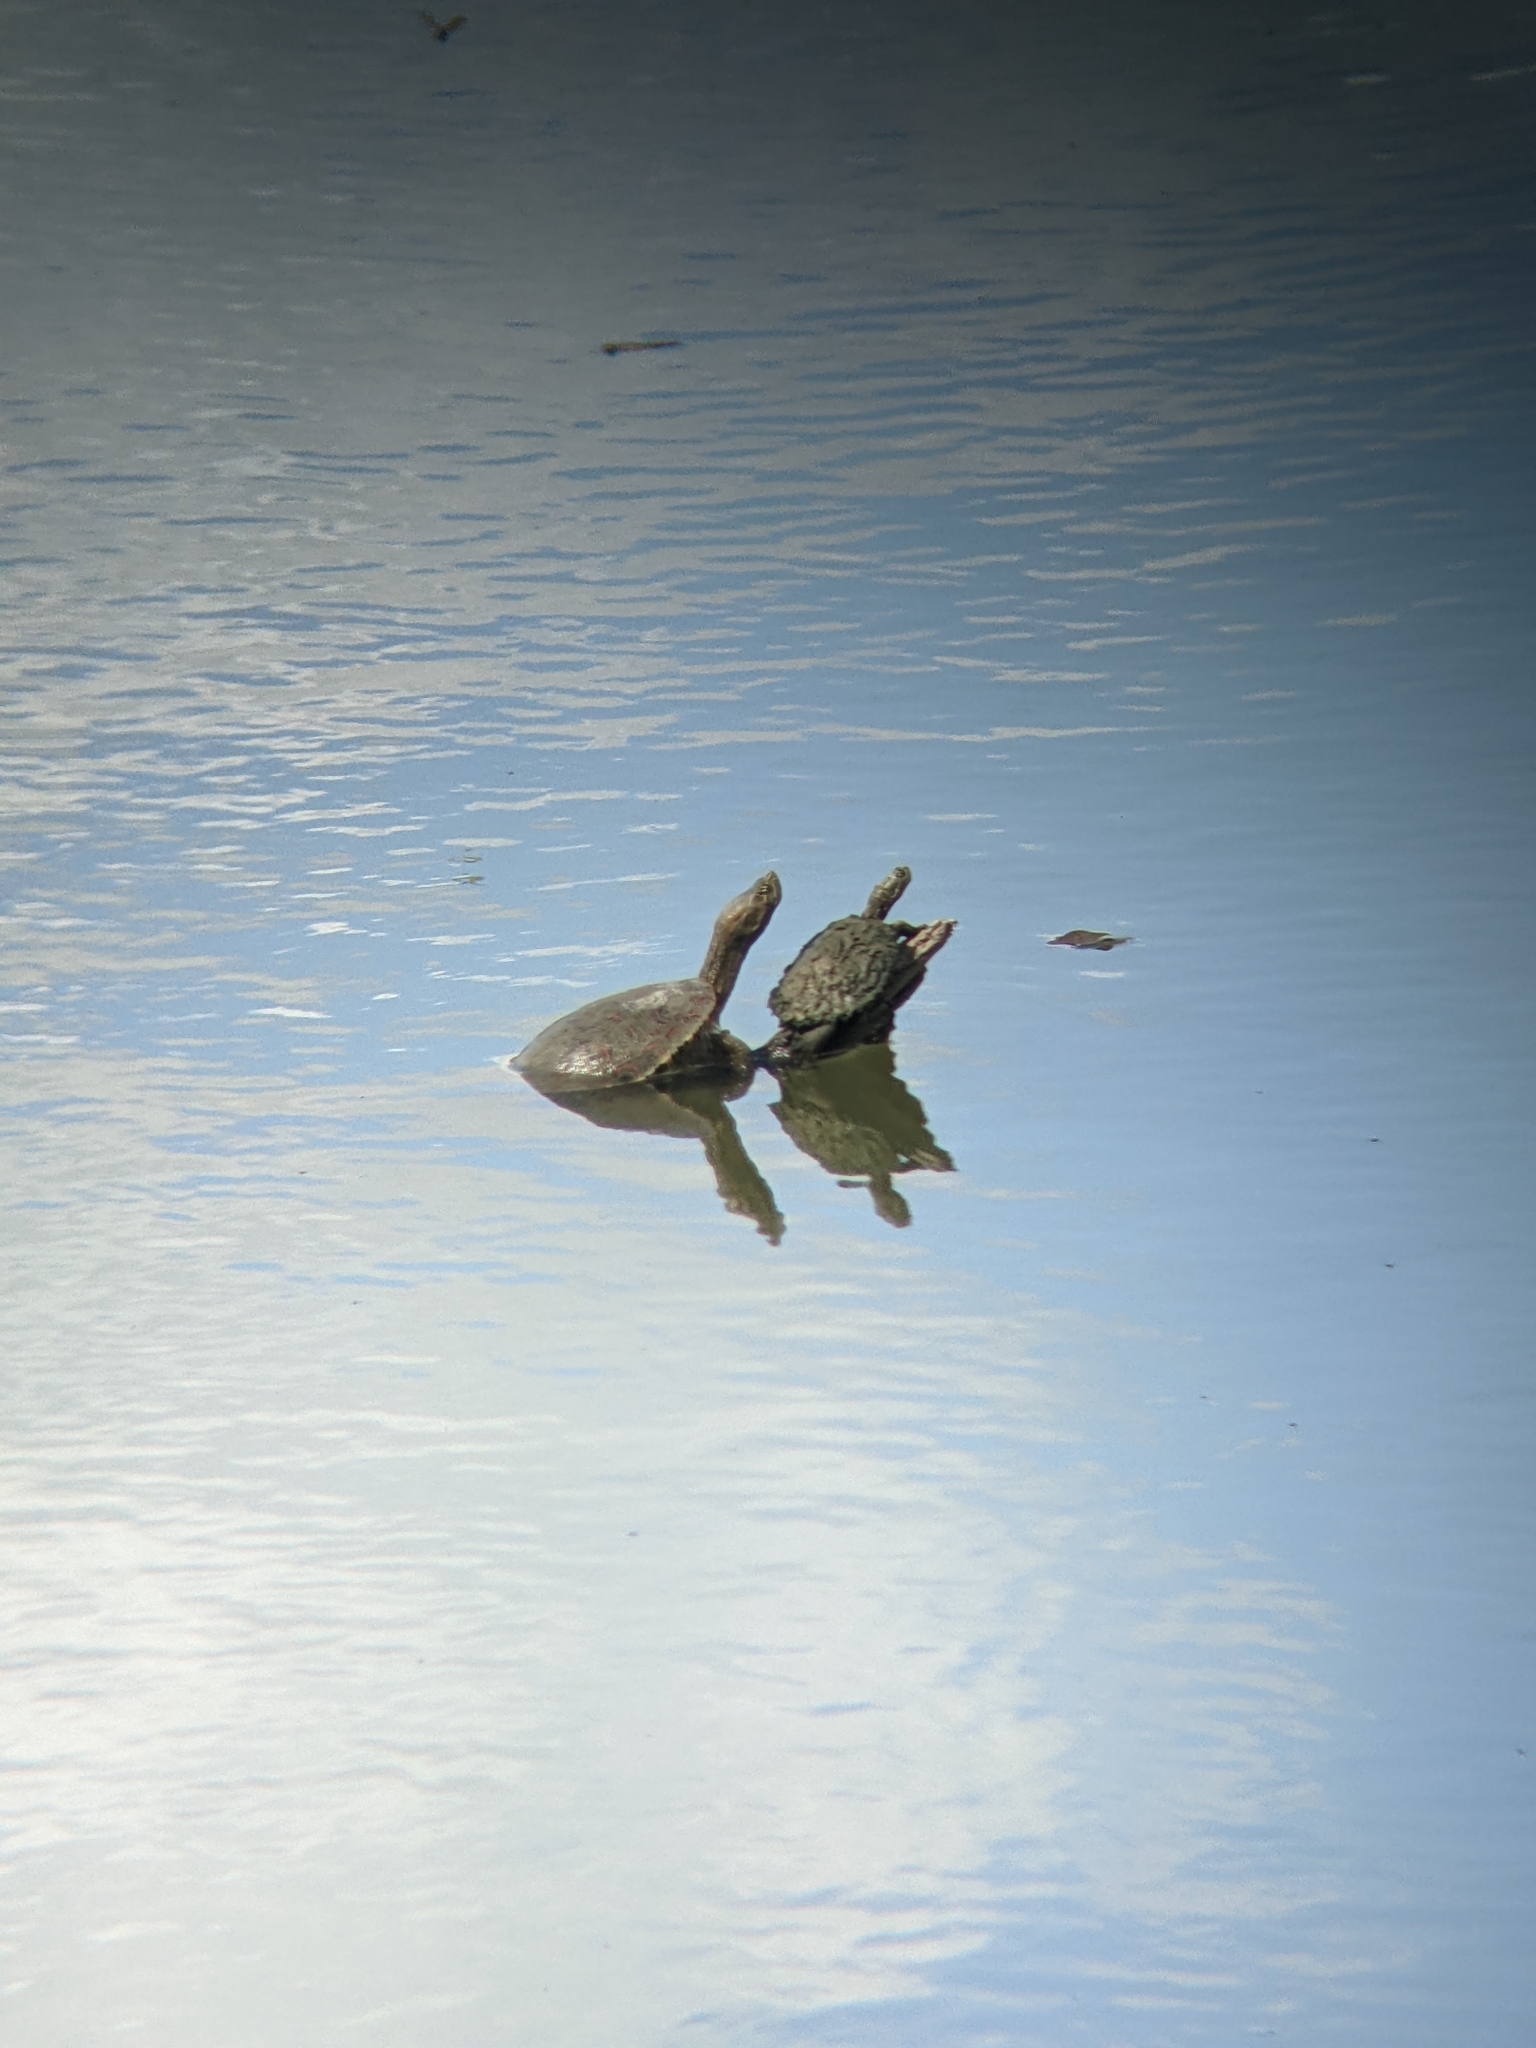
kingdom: Animalia
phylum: Chordata
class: Testudines
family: Emydidae
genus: Trachemys
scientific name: Trachemys venusta
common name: Mesoamerican slider
